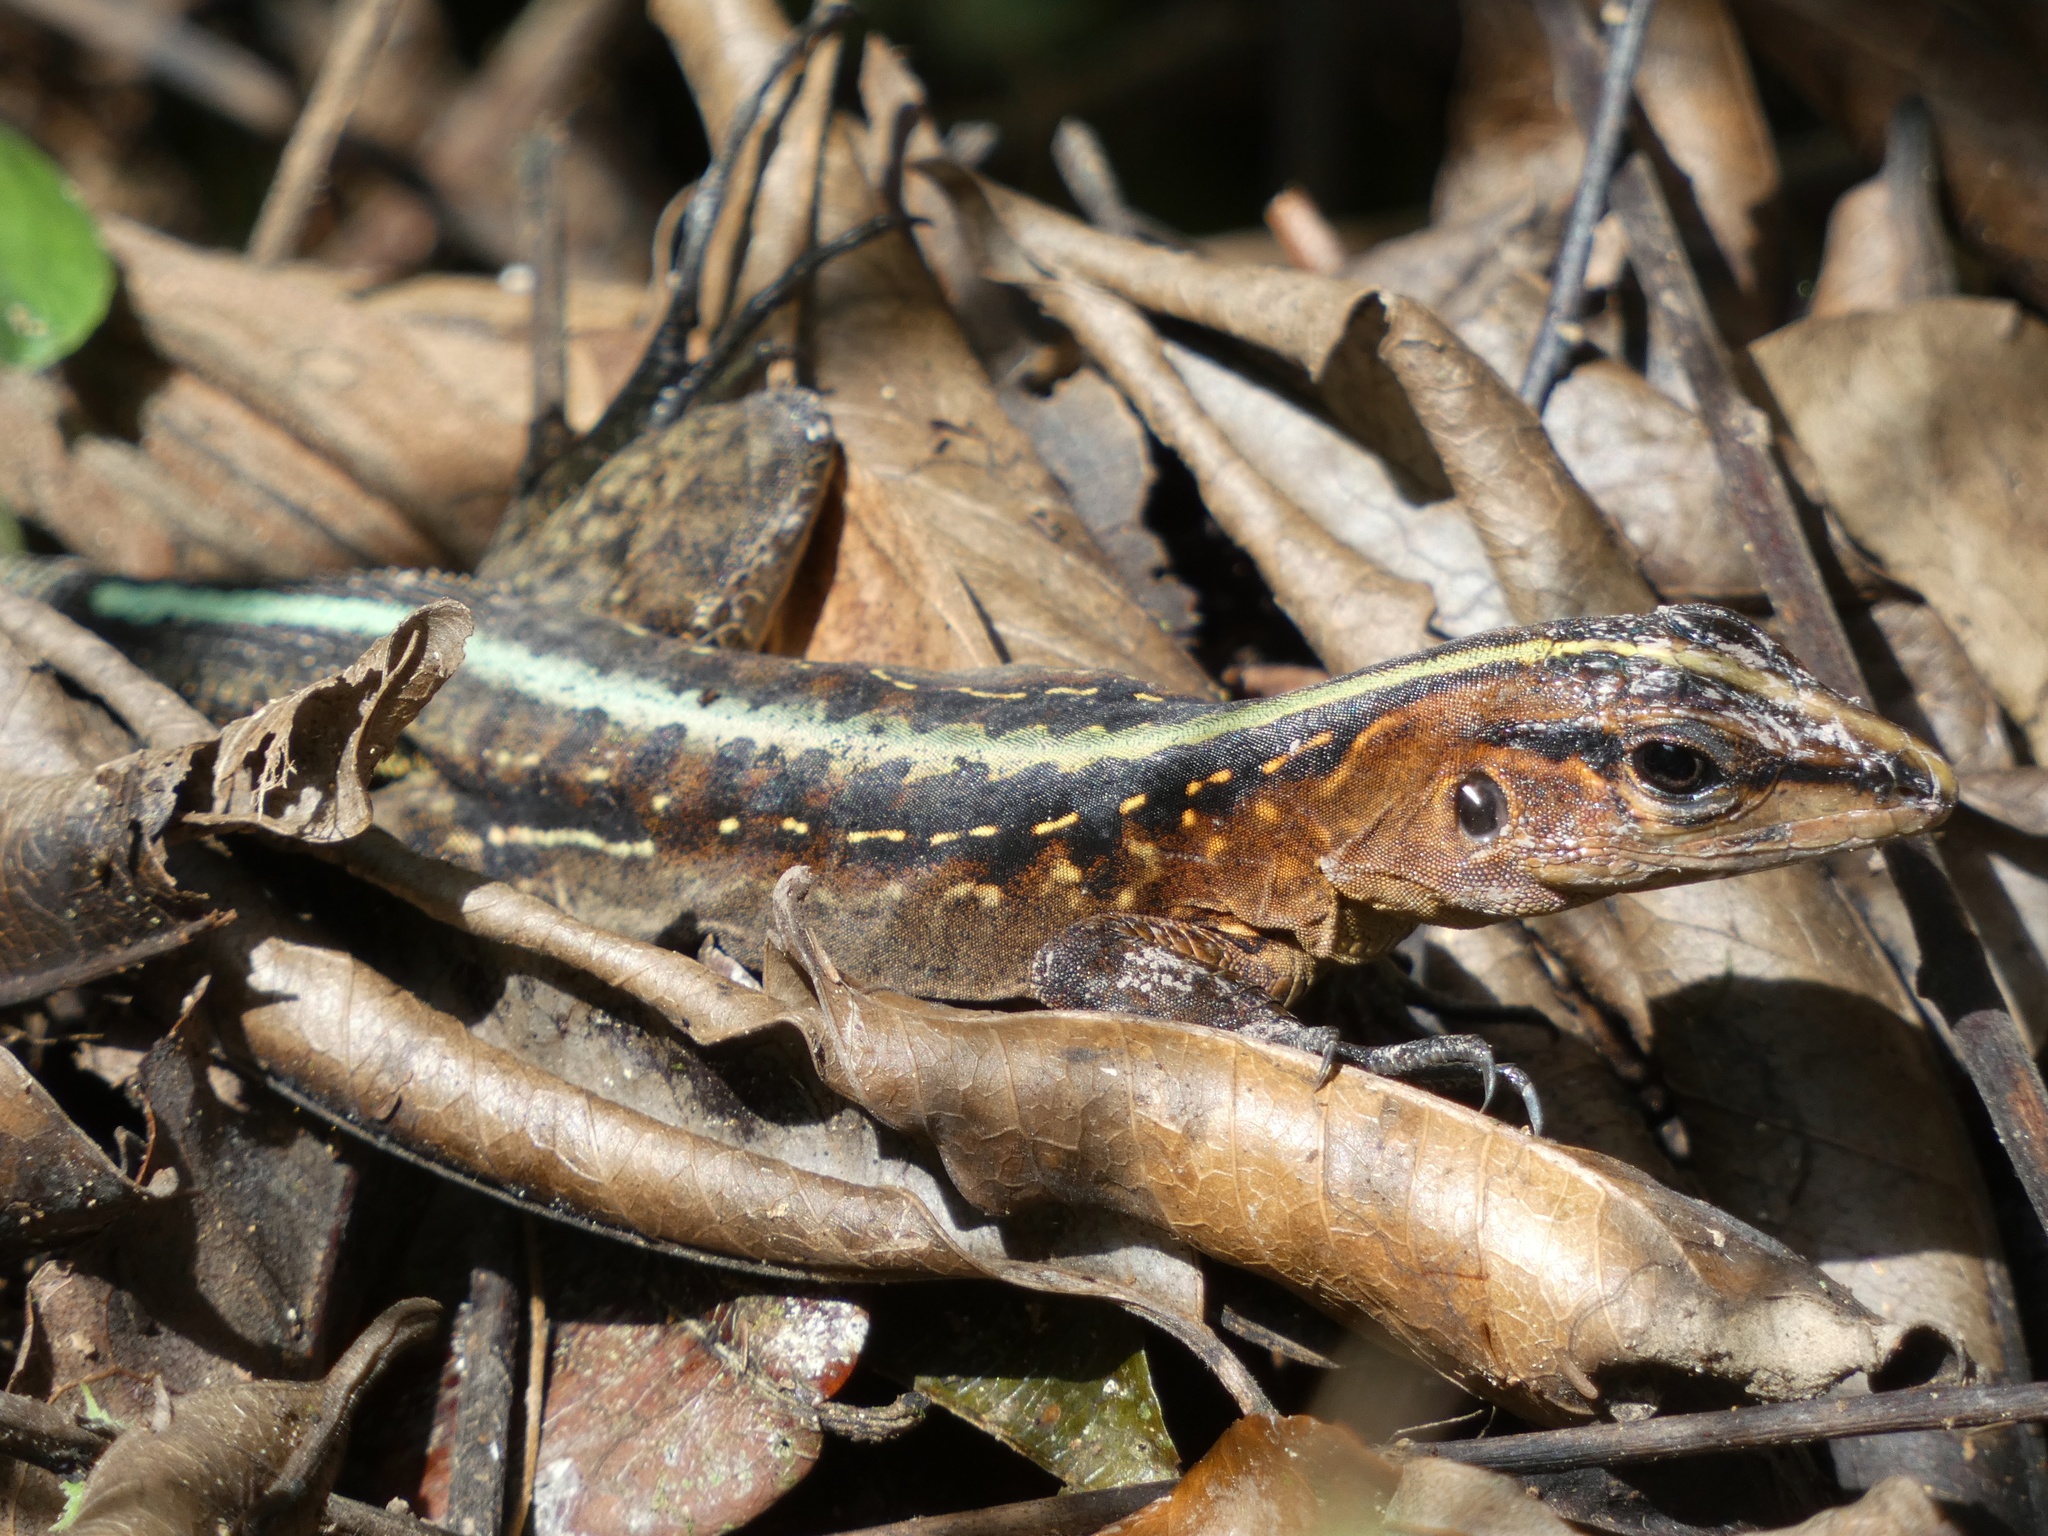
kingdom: Animalia
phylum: Chordata
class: Squamata
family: Teiidae
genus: Holcosus
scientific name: Holcosus festivus
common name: Middle american ameiva
